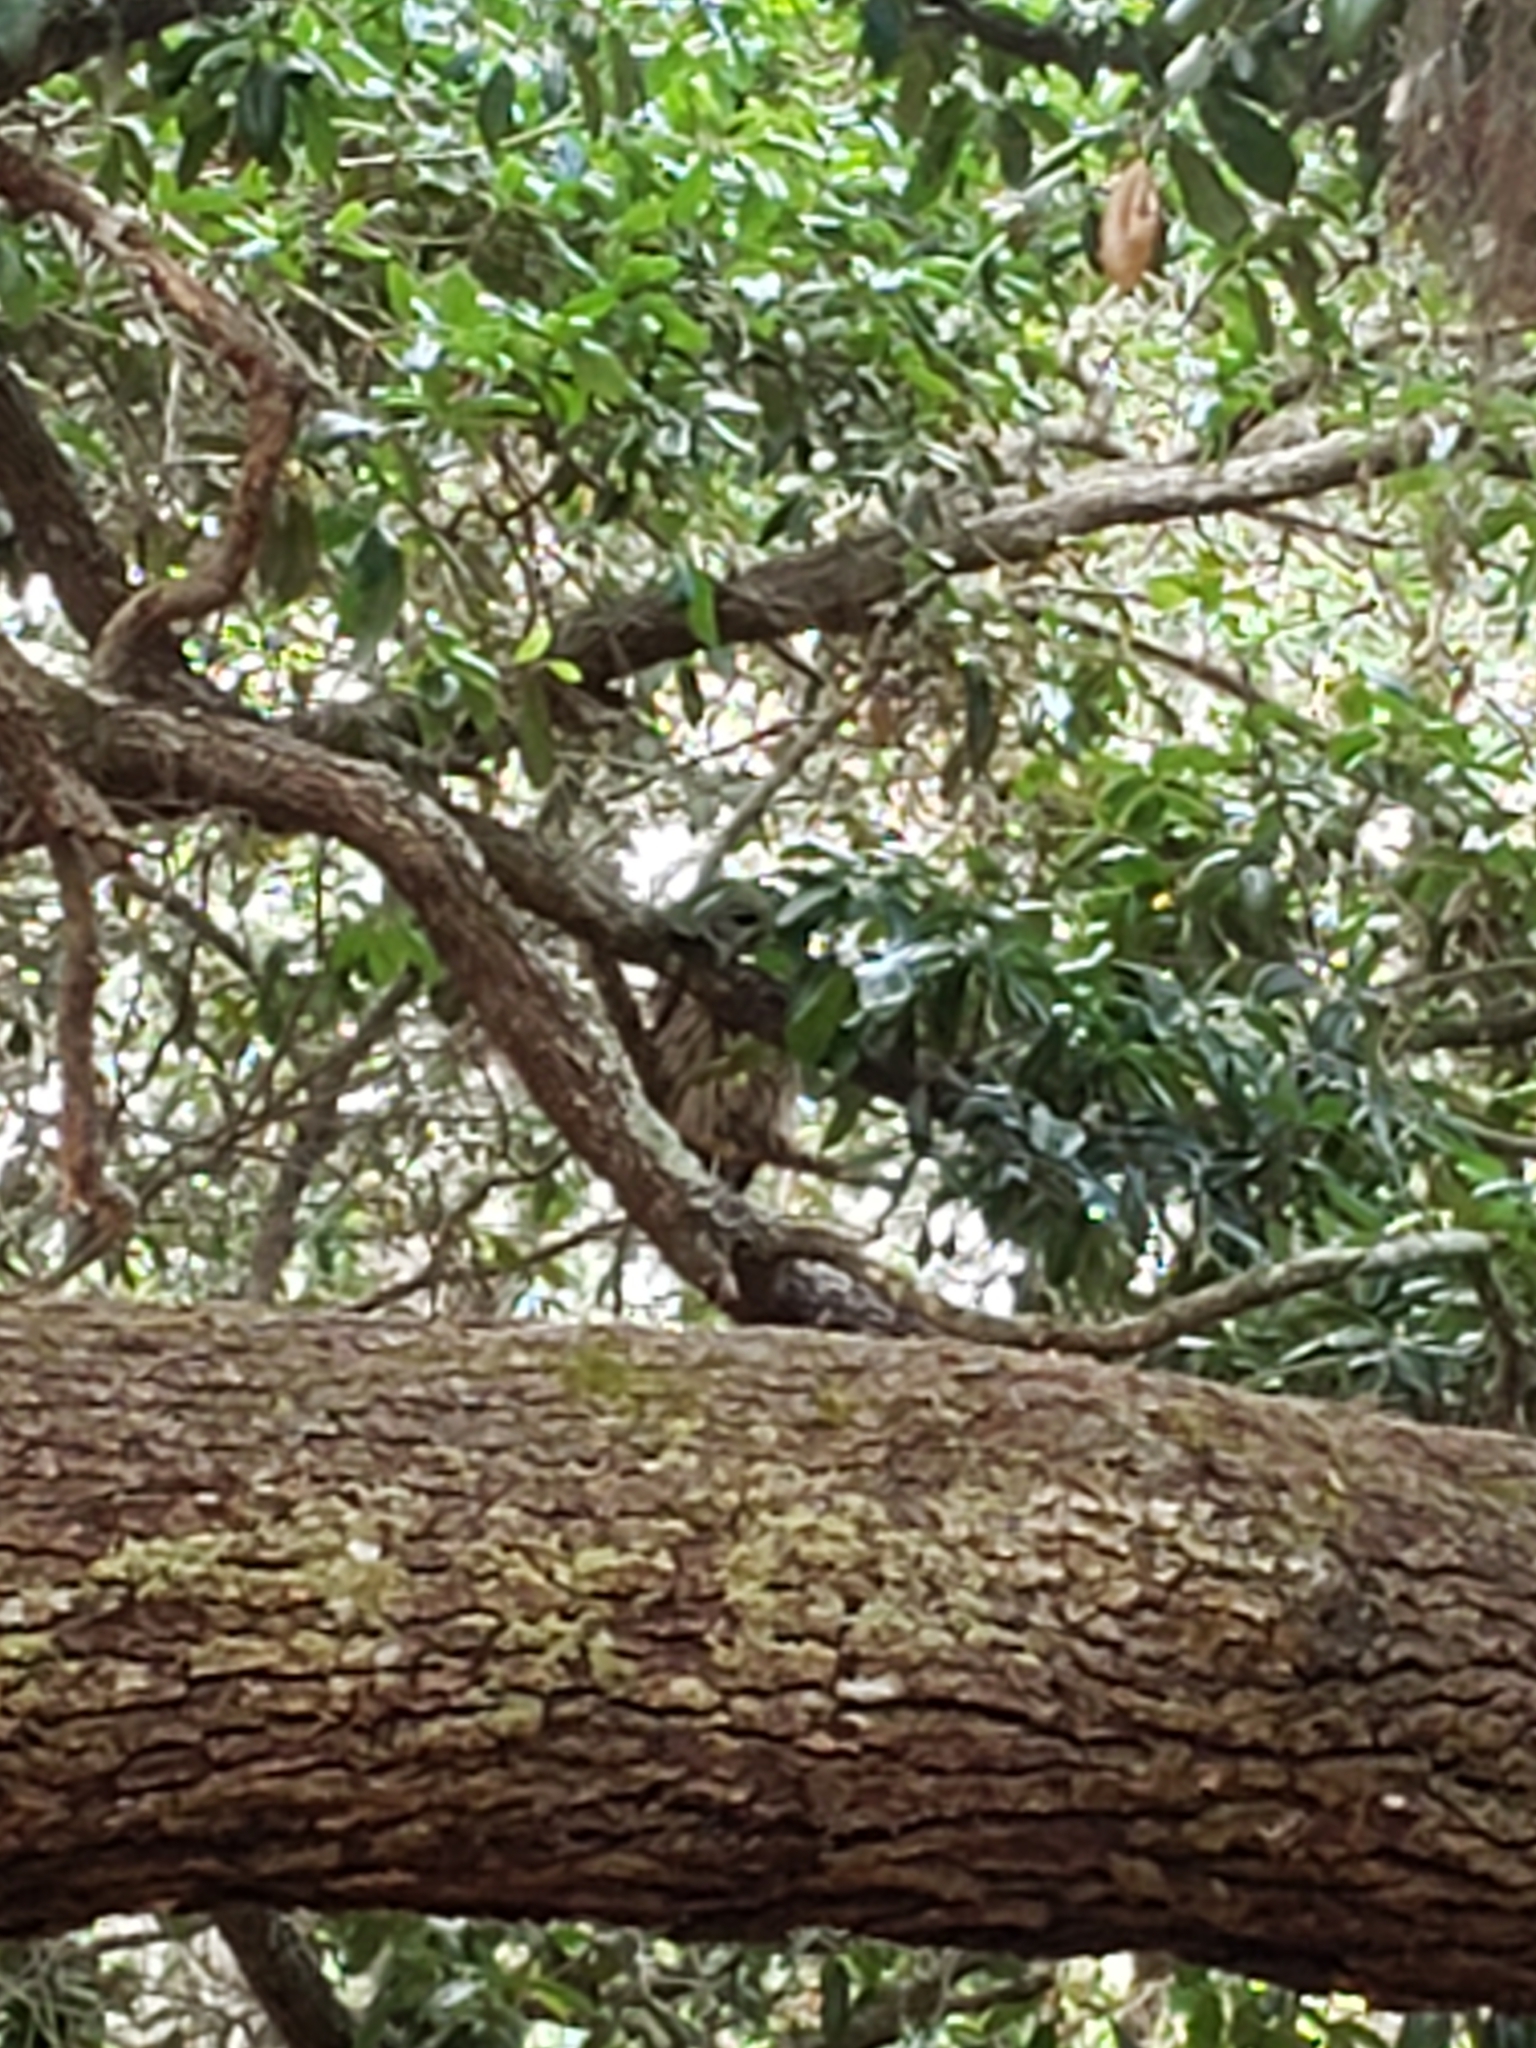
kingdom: Animalia
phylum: Chordata
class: Aves
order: Strigiformes
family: Strigidae
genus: Strix
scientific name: Strix varia
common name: Barred owl
